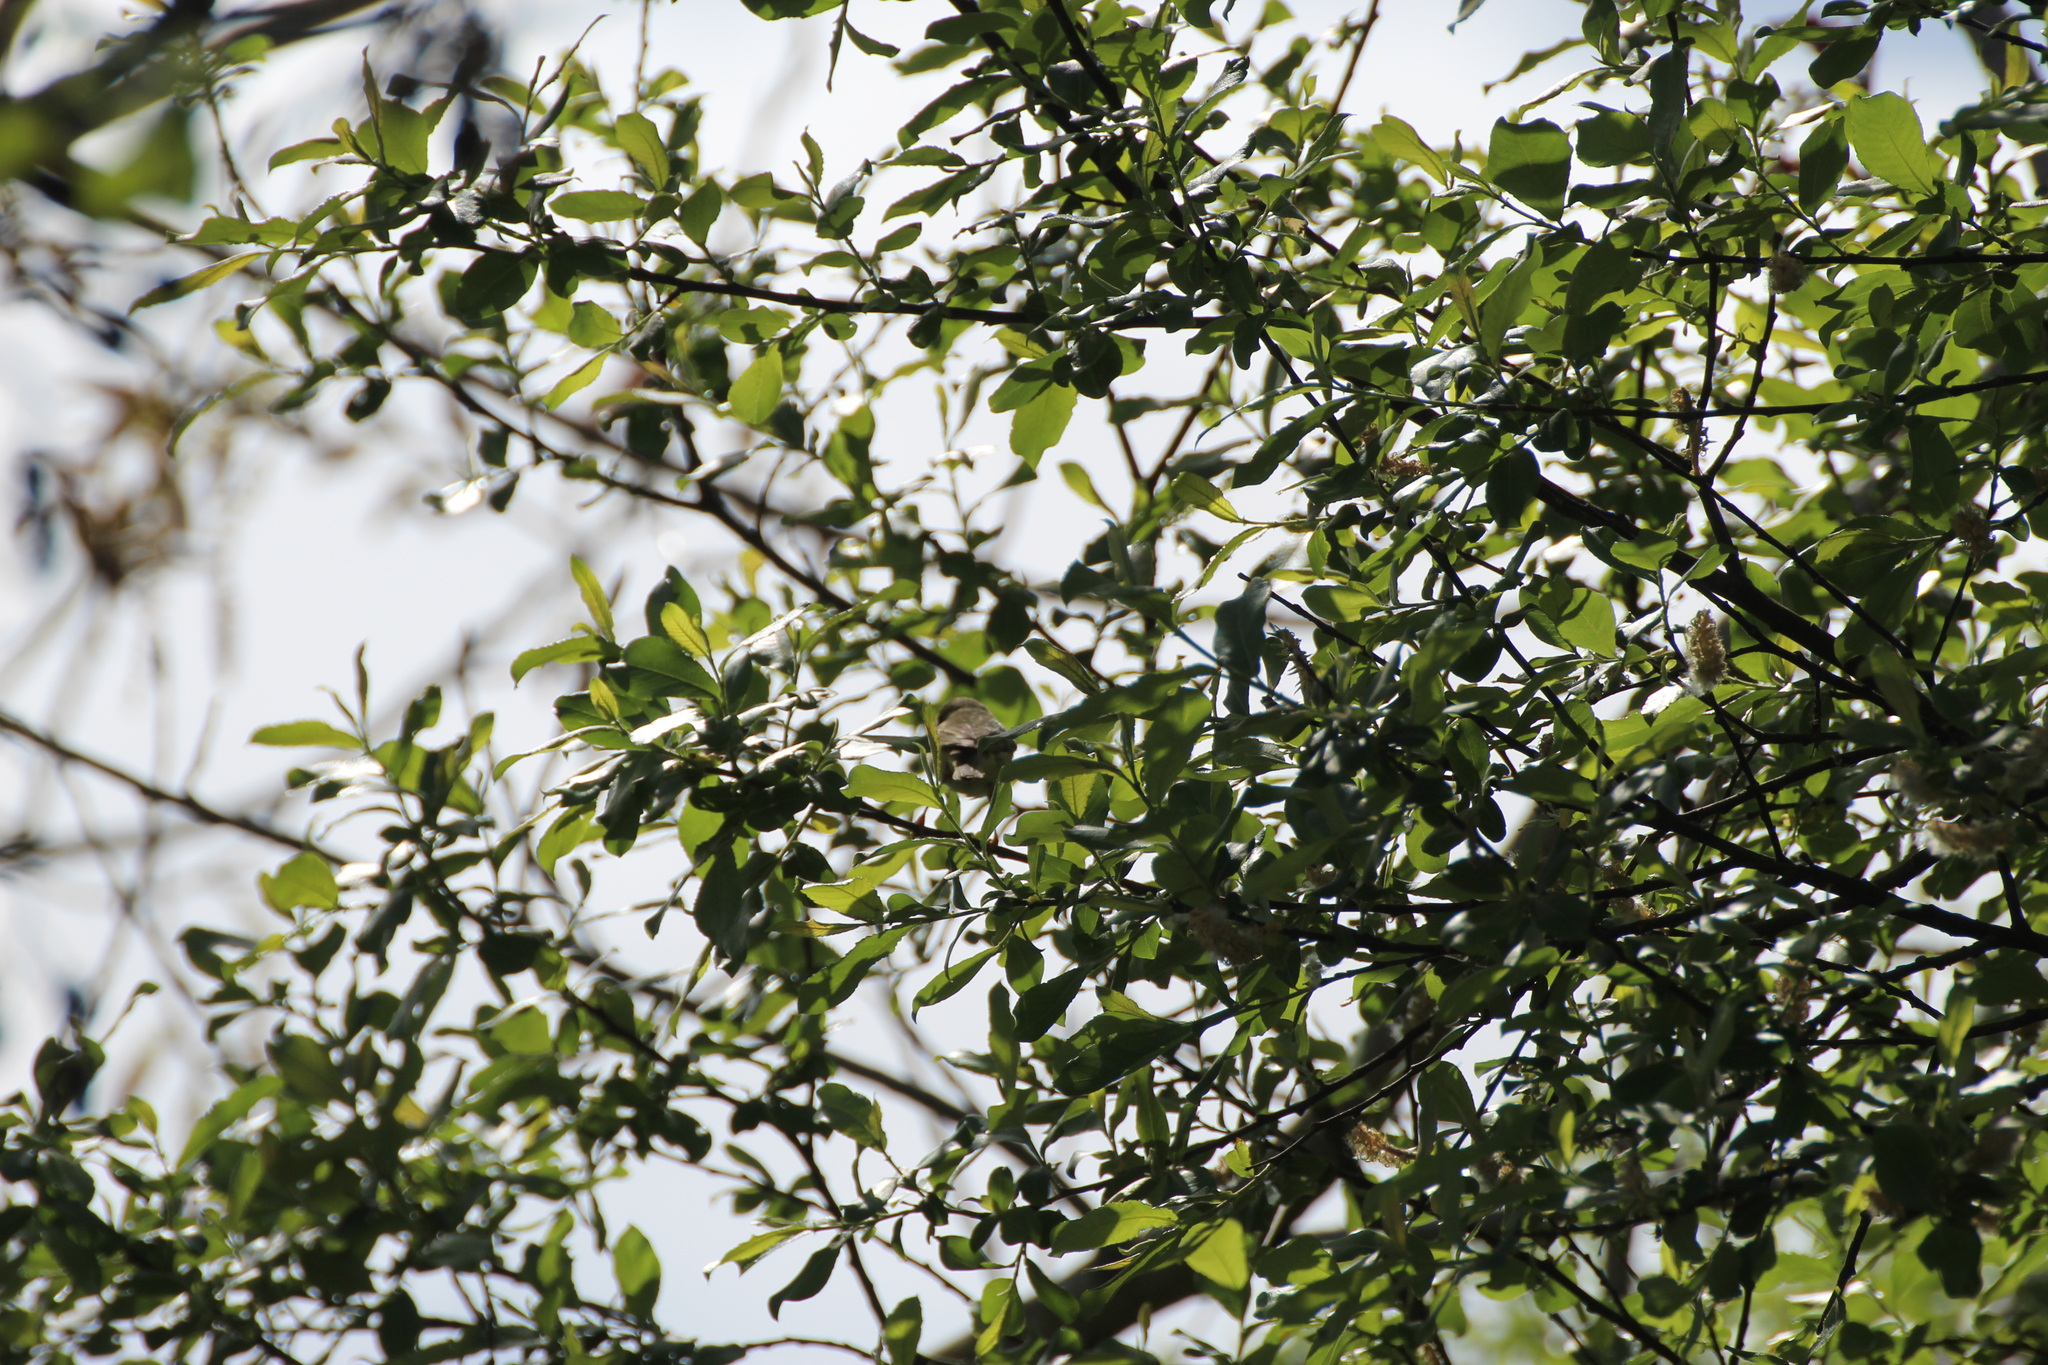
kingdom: Animalia
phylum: Chordata
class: Aves
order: Passeriformes
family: Phylloscopidae
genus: Phylloscopus
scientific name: Phylloscopus trochilus
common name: Willow warbler
